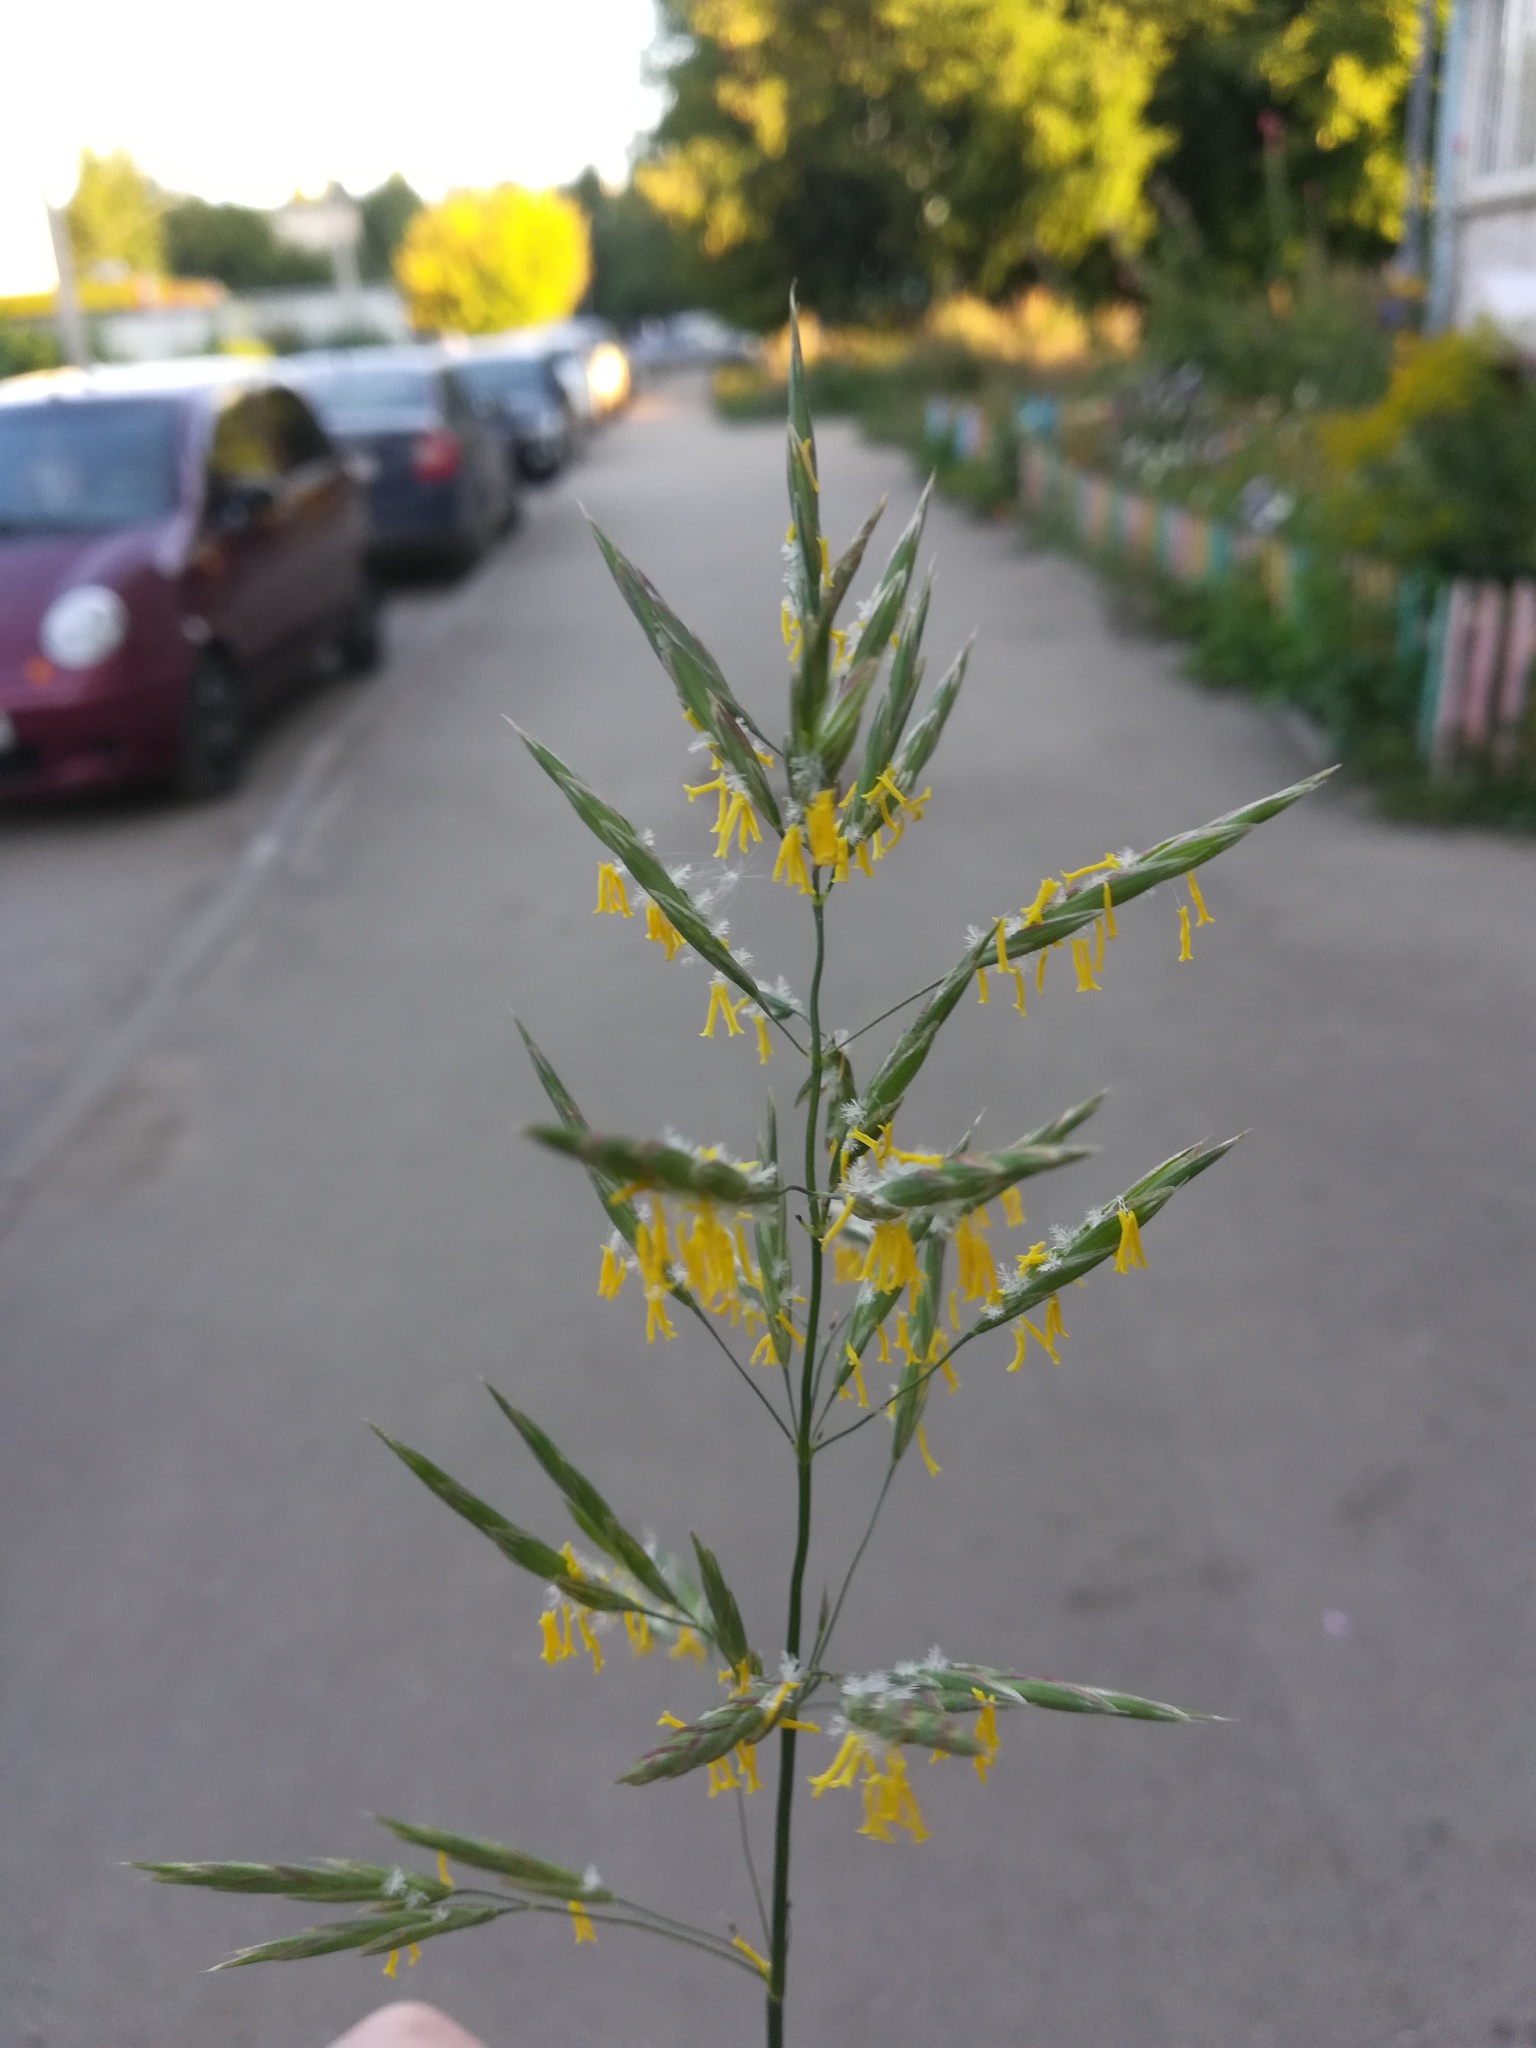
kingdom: Plantae
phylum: Tracheophyta
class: Liliopsida
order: Poales
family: Poaceae
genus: Bromus
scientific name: Bromus inermis
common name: Smooth brome
